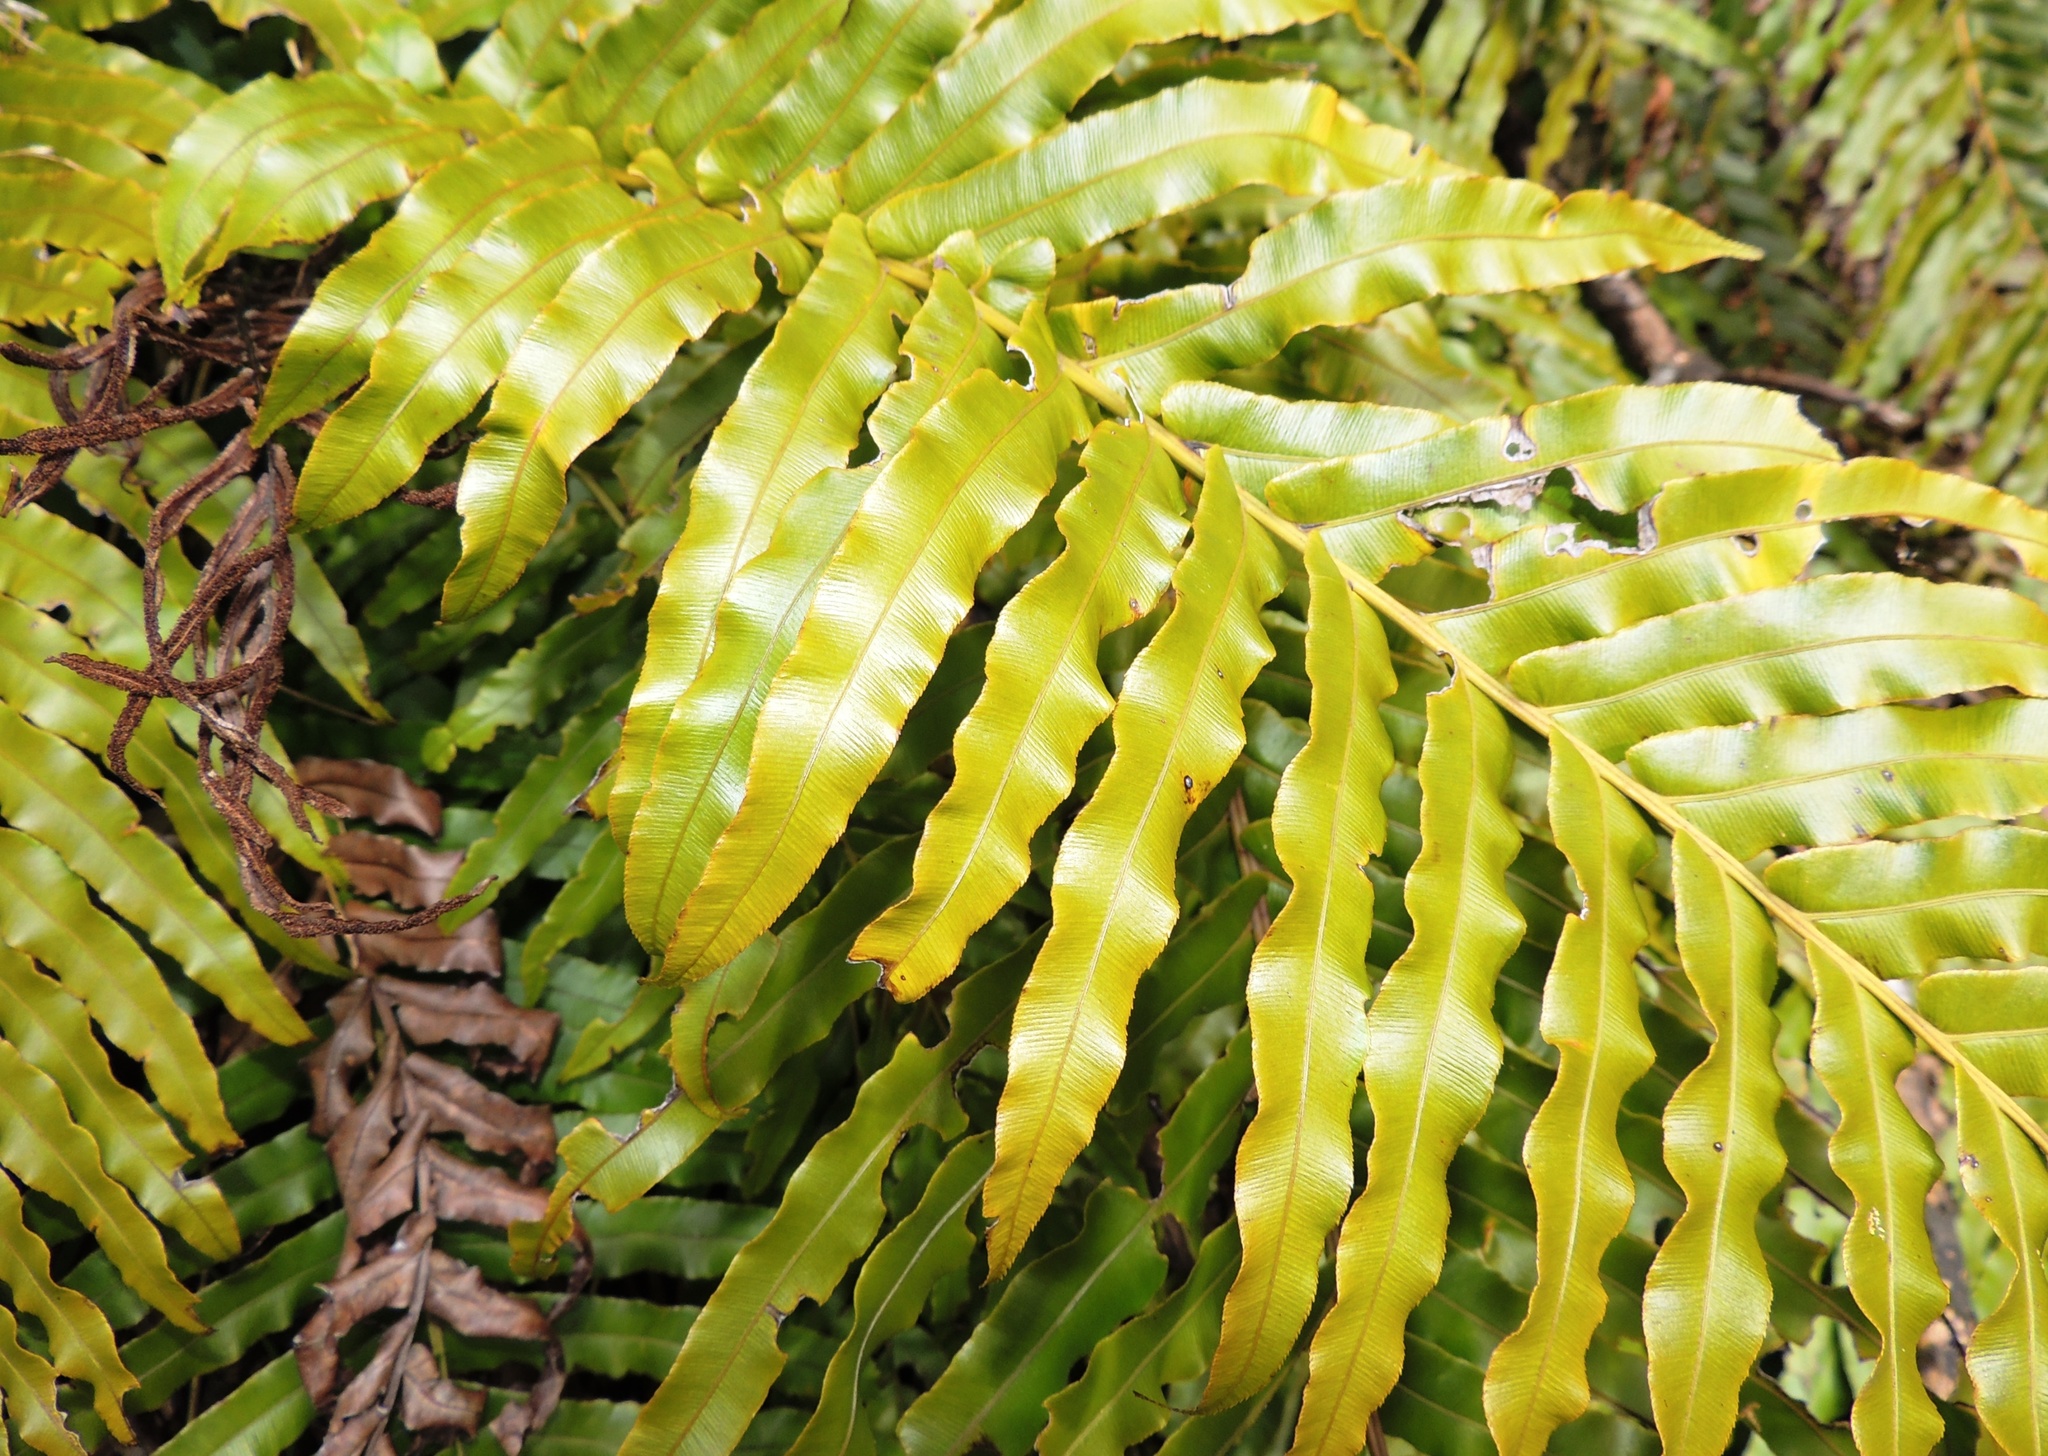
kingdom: Plantae
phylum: Tracheophyta
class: Polypodiopsida
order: Polypodiales
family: Blechnaceae
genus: Parablechnum
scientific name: Parablechnum novae-zelandiae
